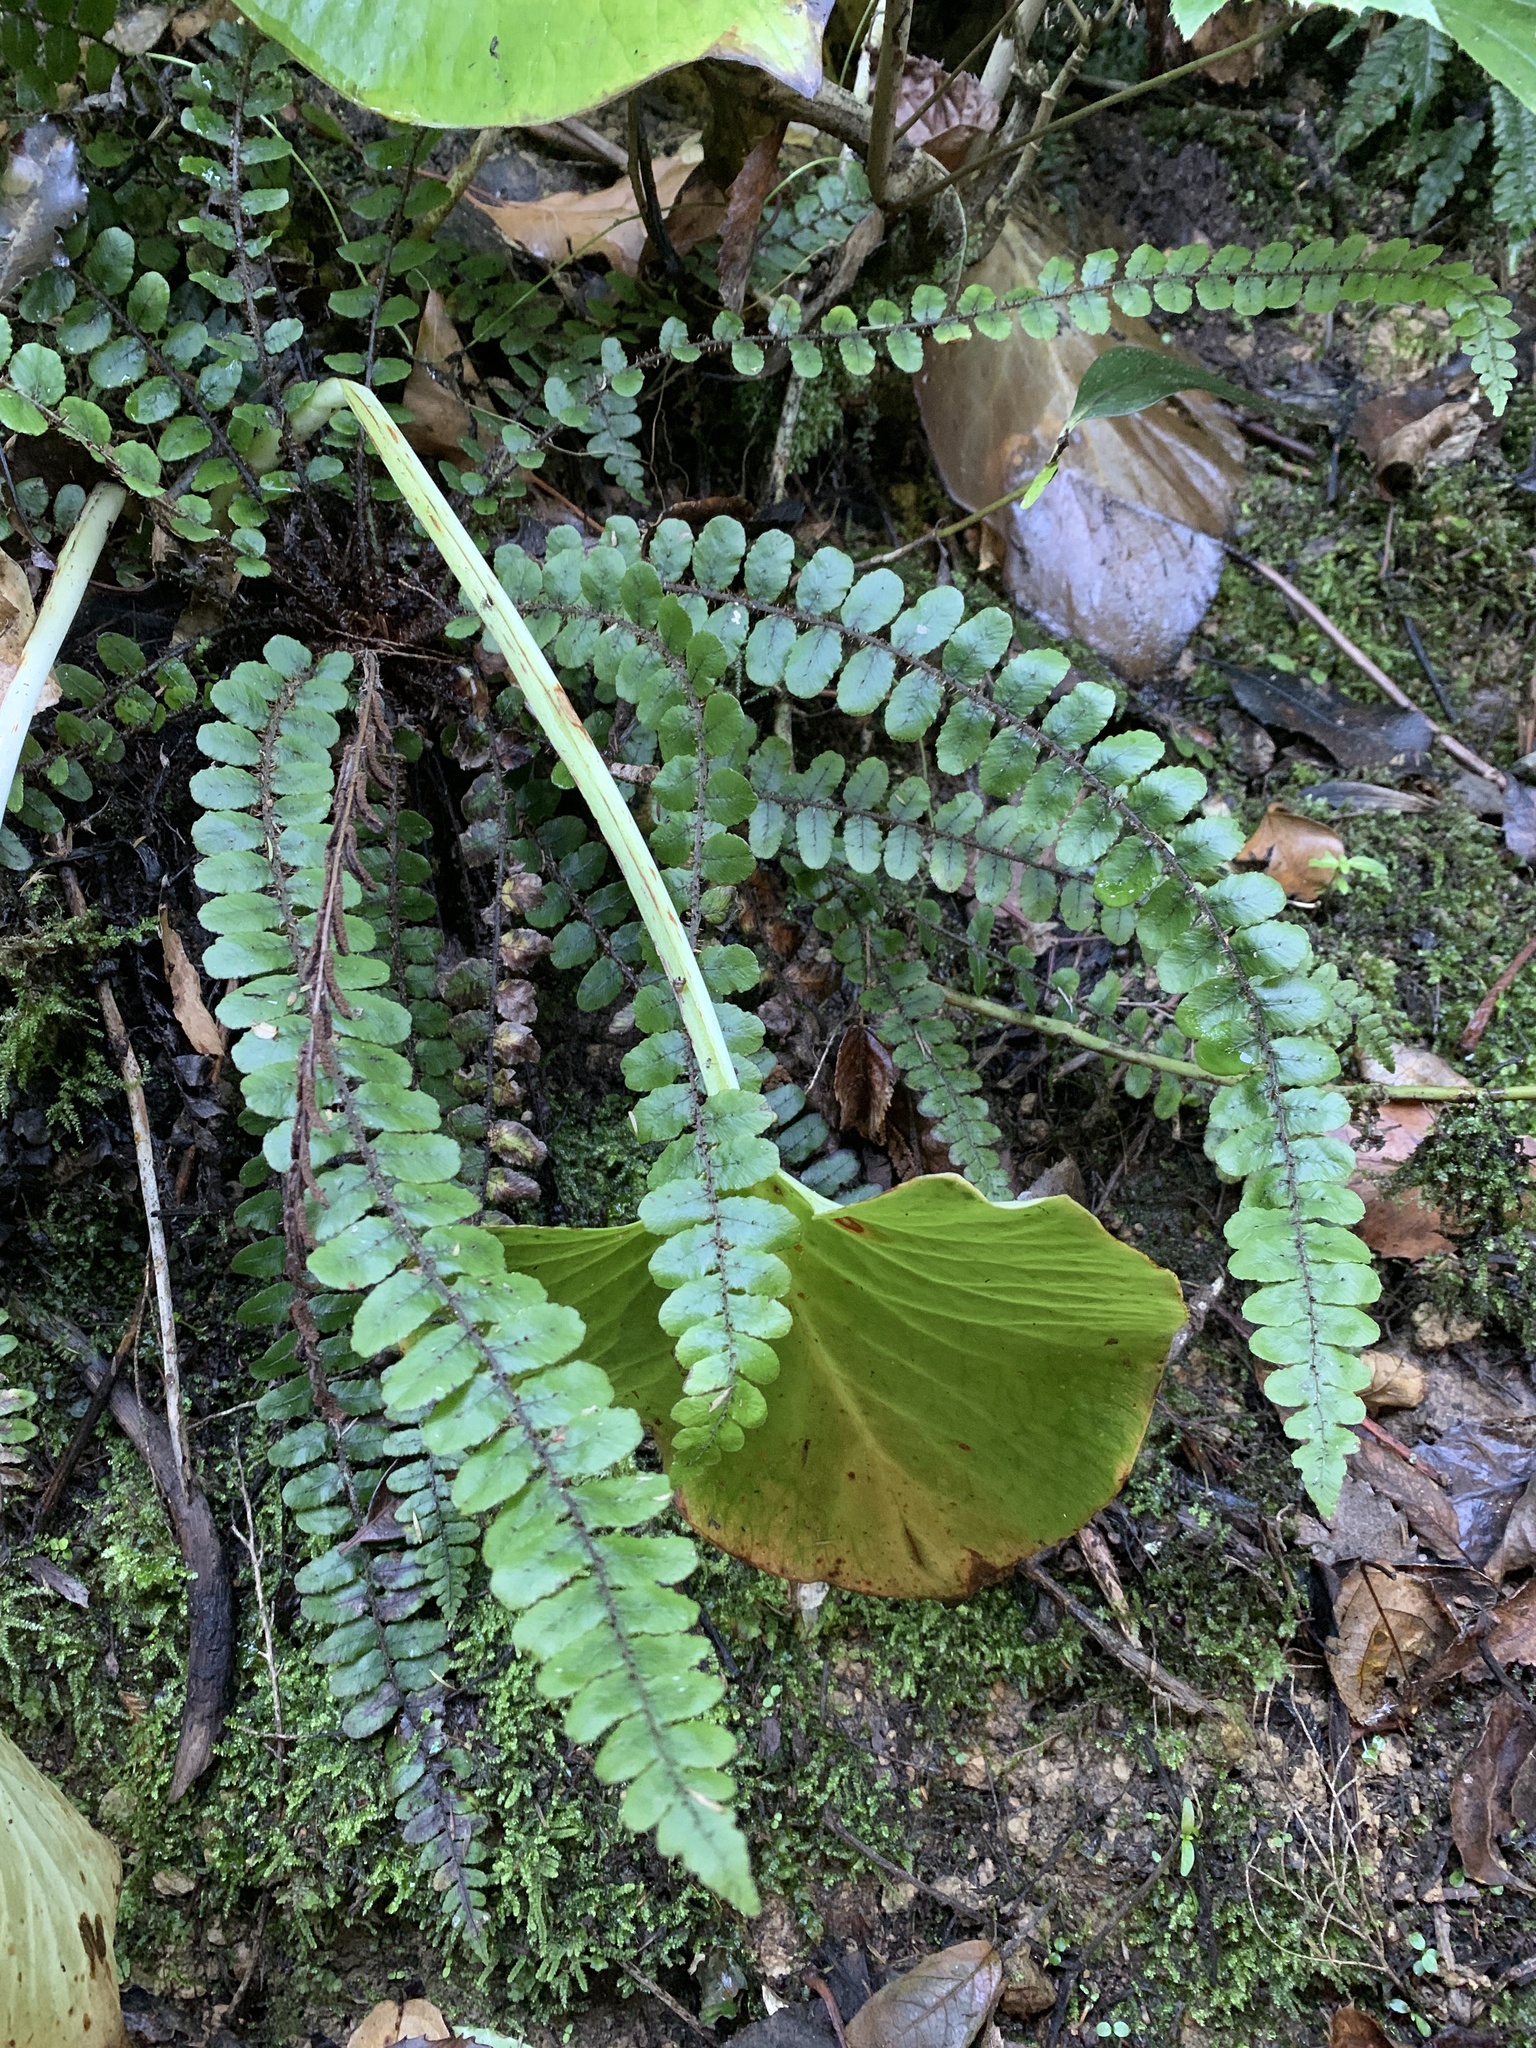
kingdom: Plantae
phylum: Tracheophyta
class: Polypodiopsida
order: Polypodiales
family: Blechnaceae
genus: Cranfillia
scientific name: Cranfillia fluviatilis
